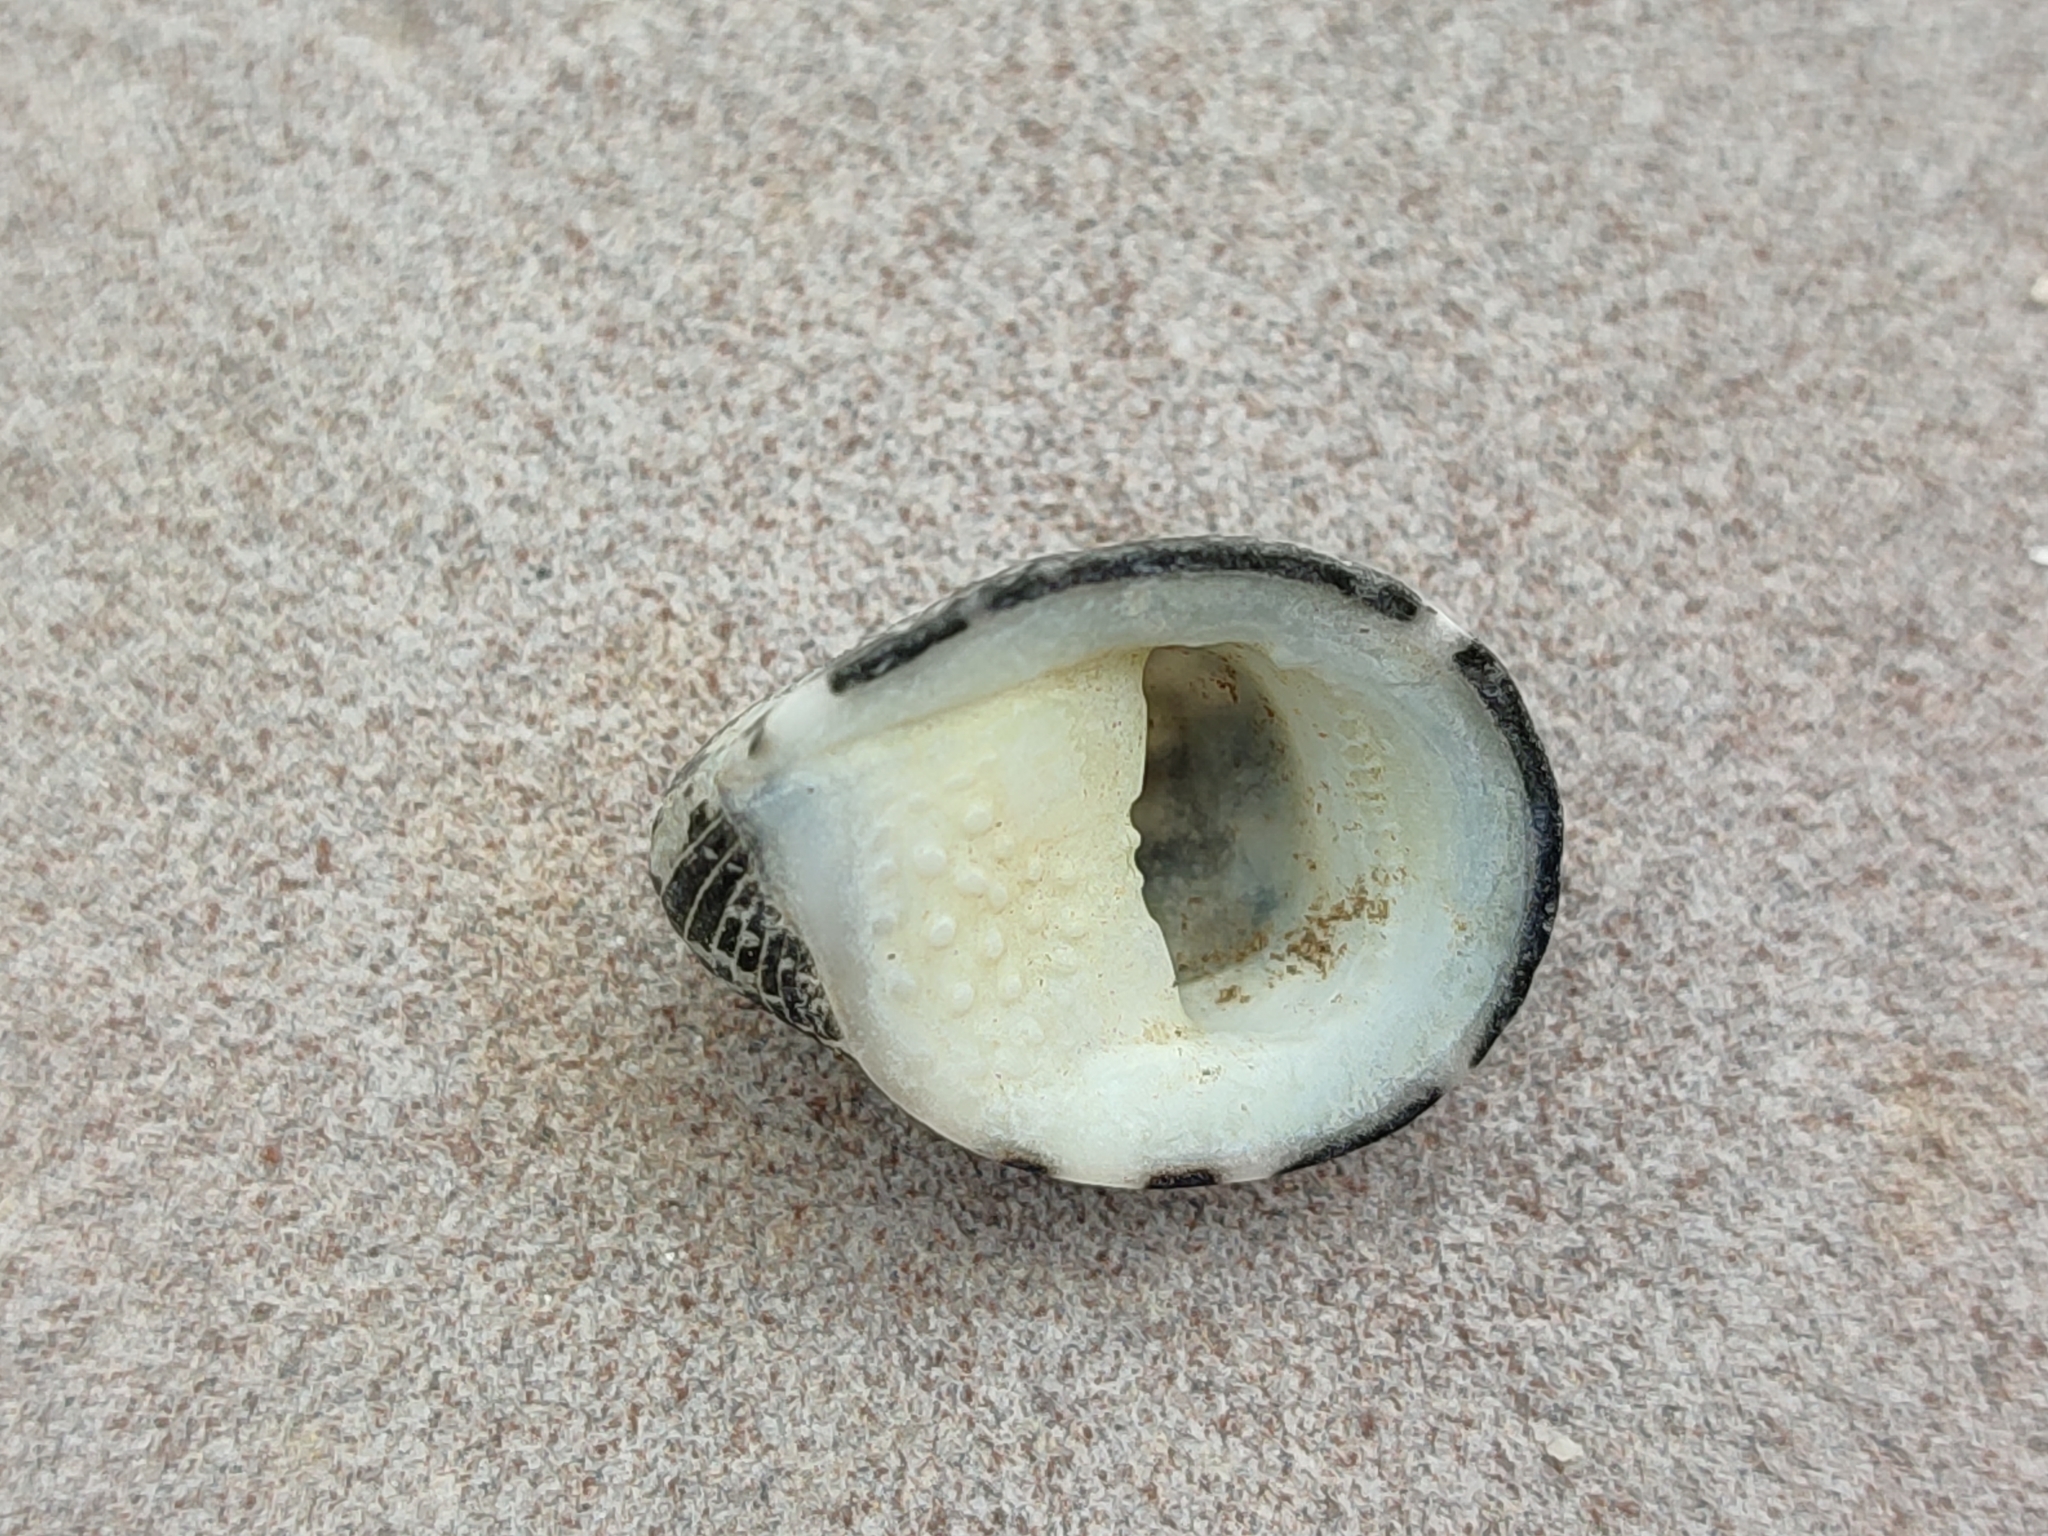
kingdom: Animalia
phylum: Mollusca
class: Gastropoda
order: Cycloneritida
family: Neritidae
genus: Nerita
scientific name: Nerita albicilla
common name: Blotched nerite
